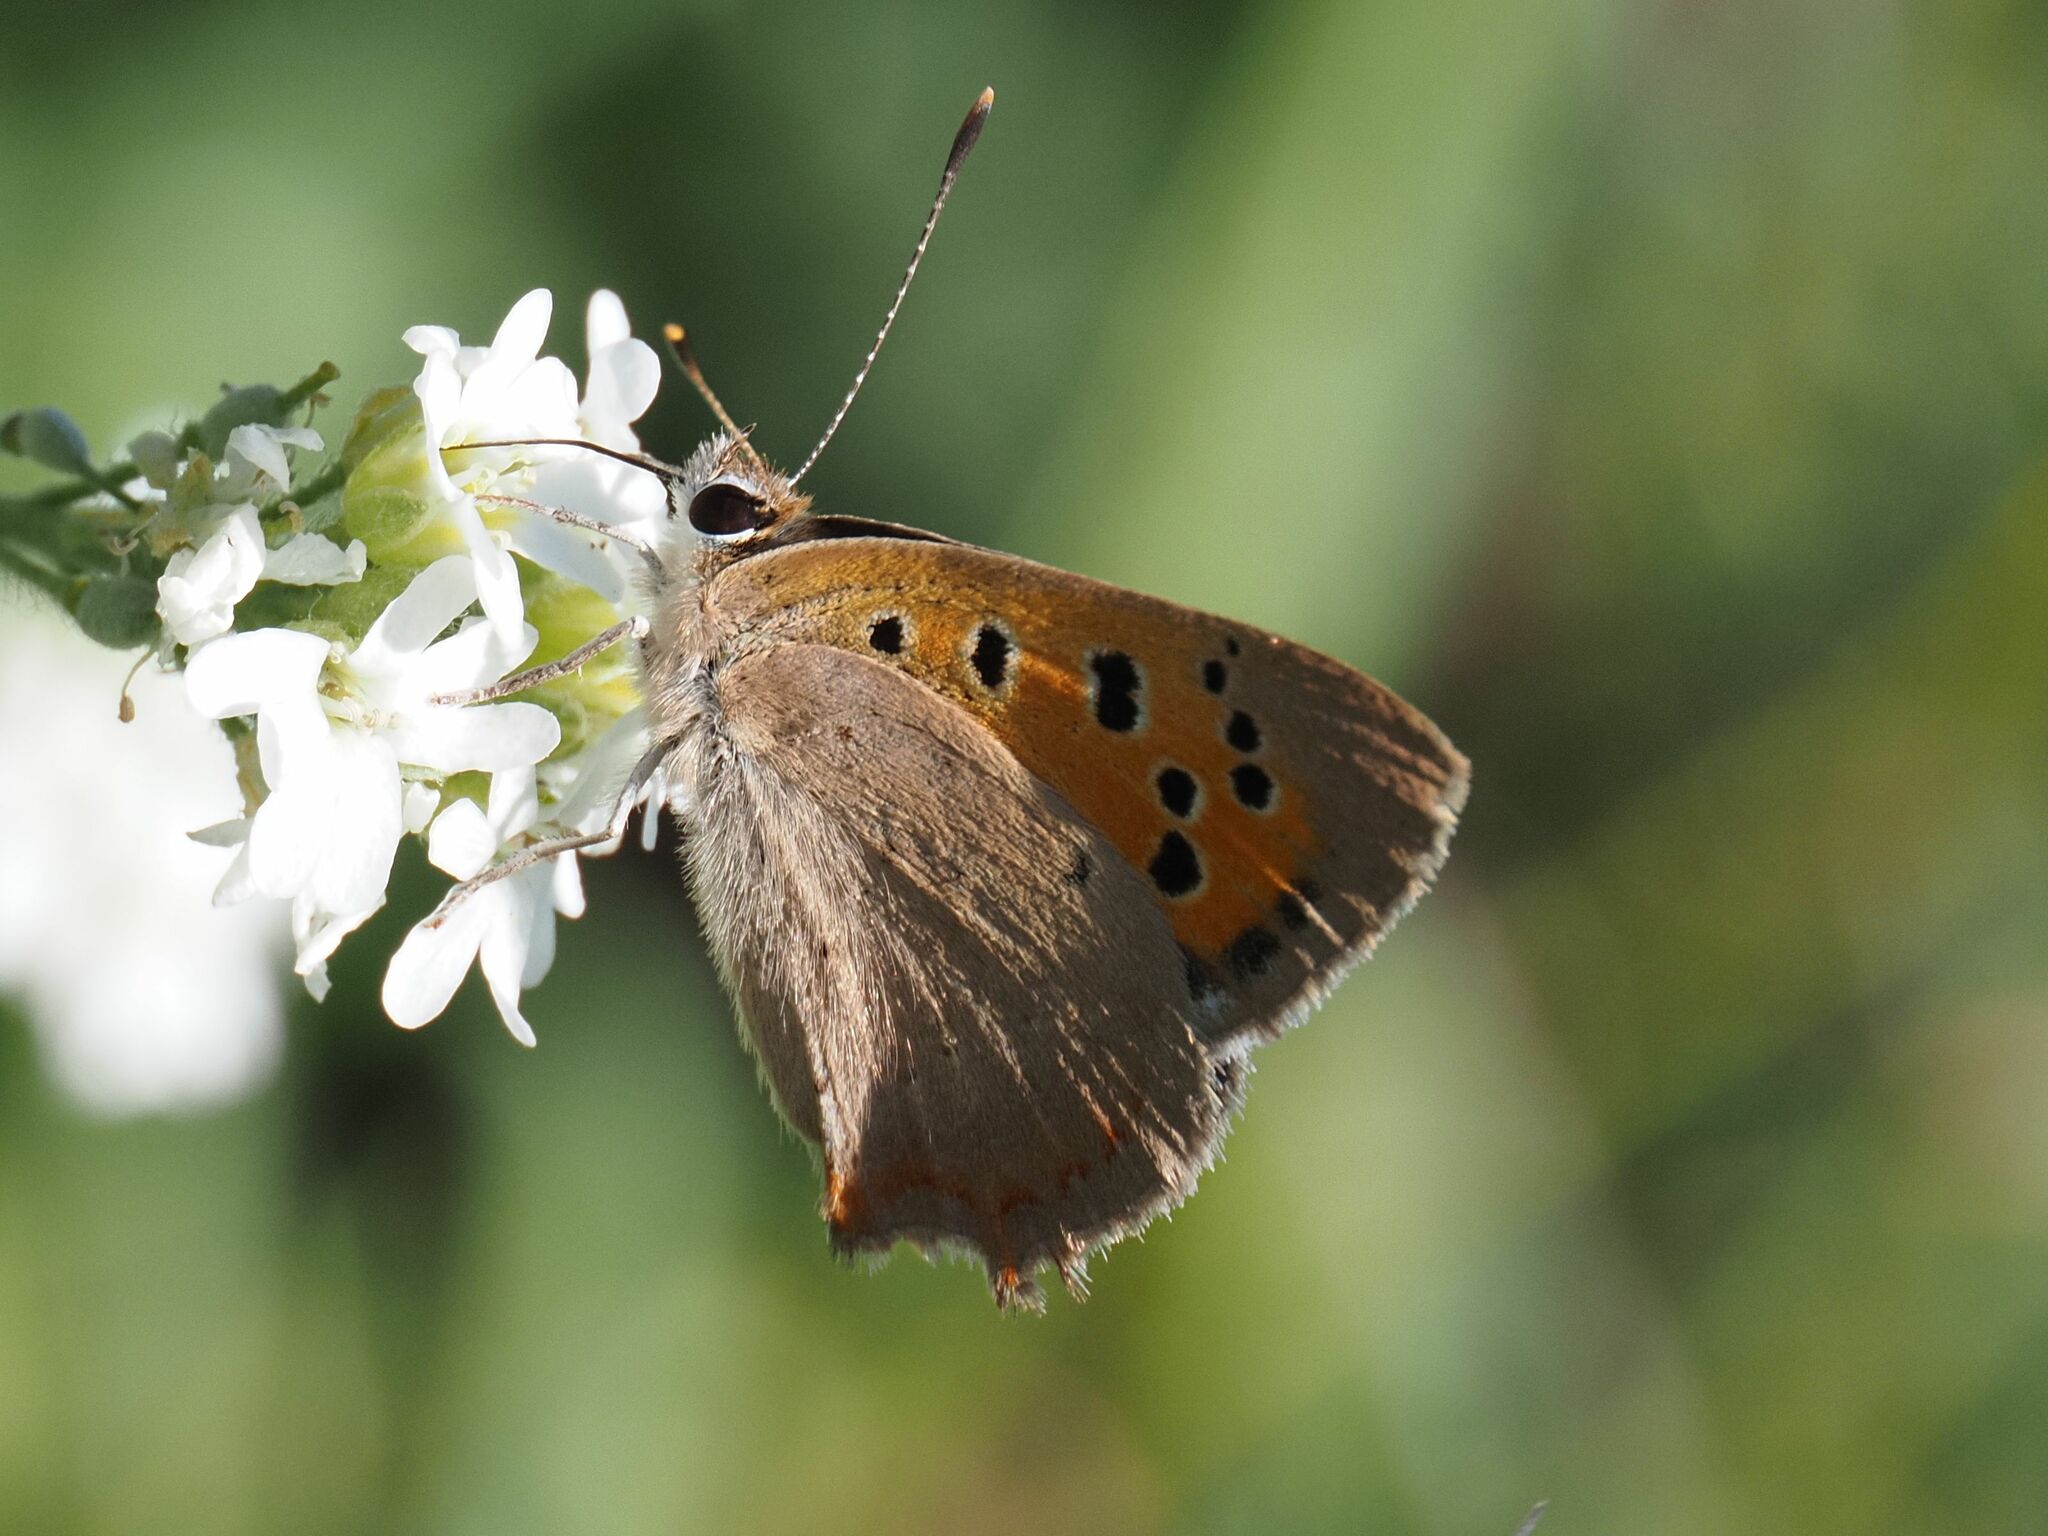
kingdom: Animalia
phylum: Arthropoda
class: Insecta
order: Lepidoptera
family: Lycaenidae
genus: Lycaena
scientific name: Lycaena phlaeas
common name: Small copper
